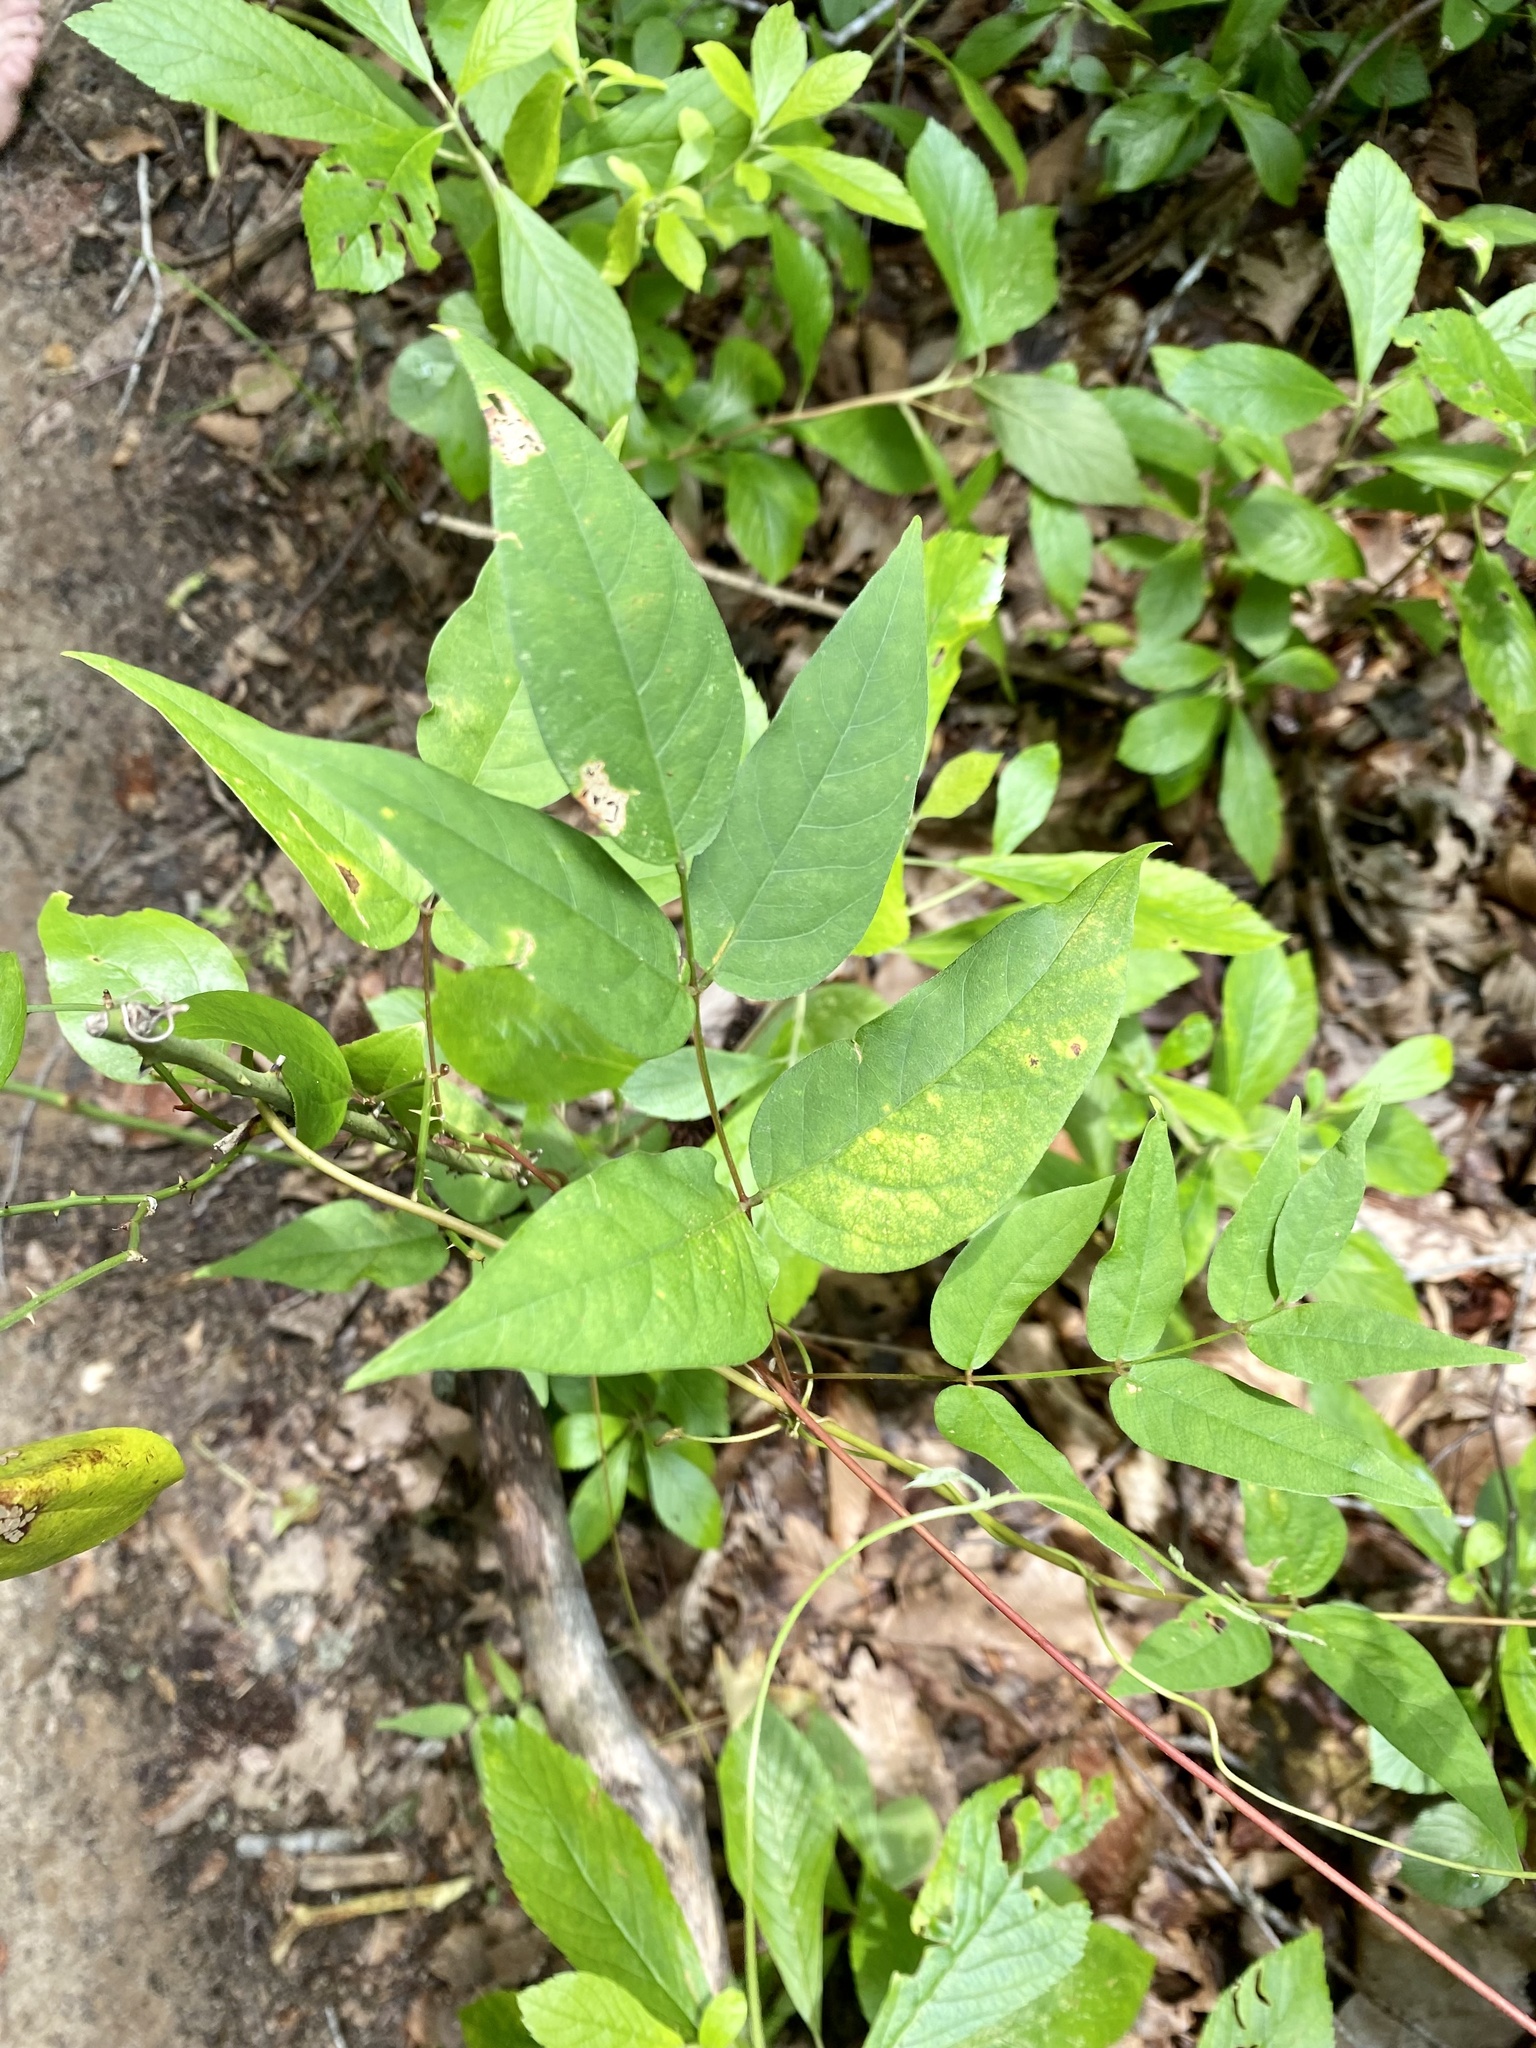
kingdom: Plantae
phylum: Tracheophyta
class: Magnoliopsida
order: Fabales
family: Fabaceae
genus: Apios
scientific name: Apios americana
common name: American potato-bean
